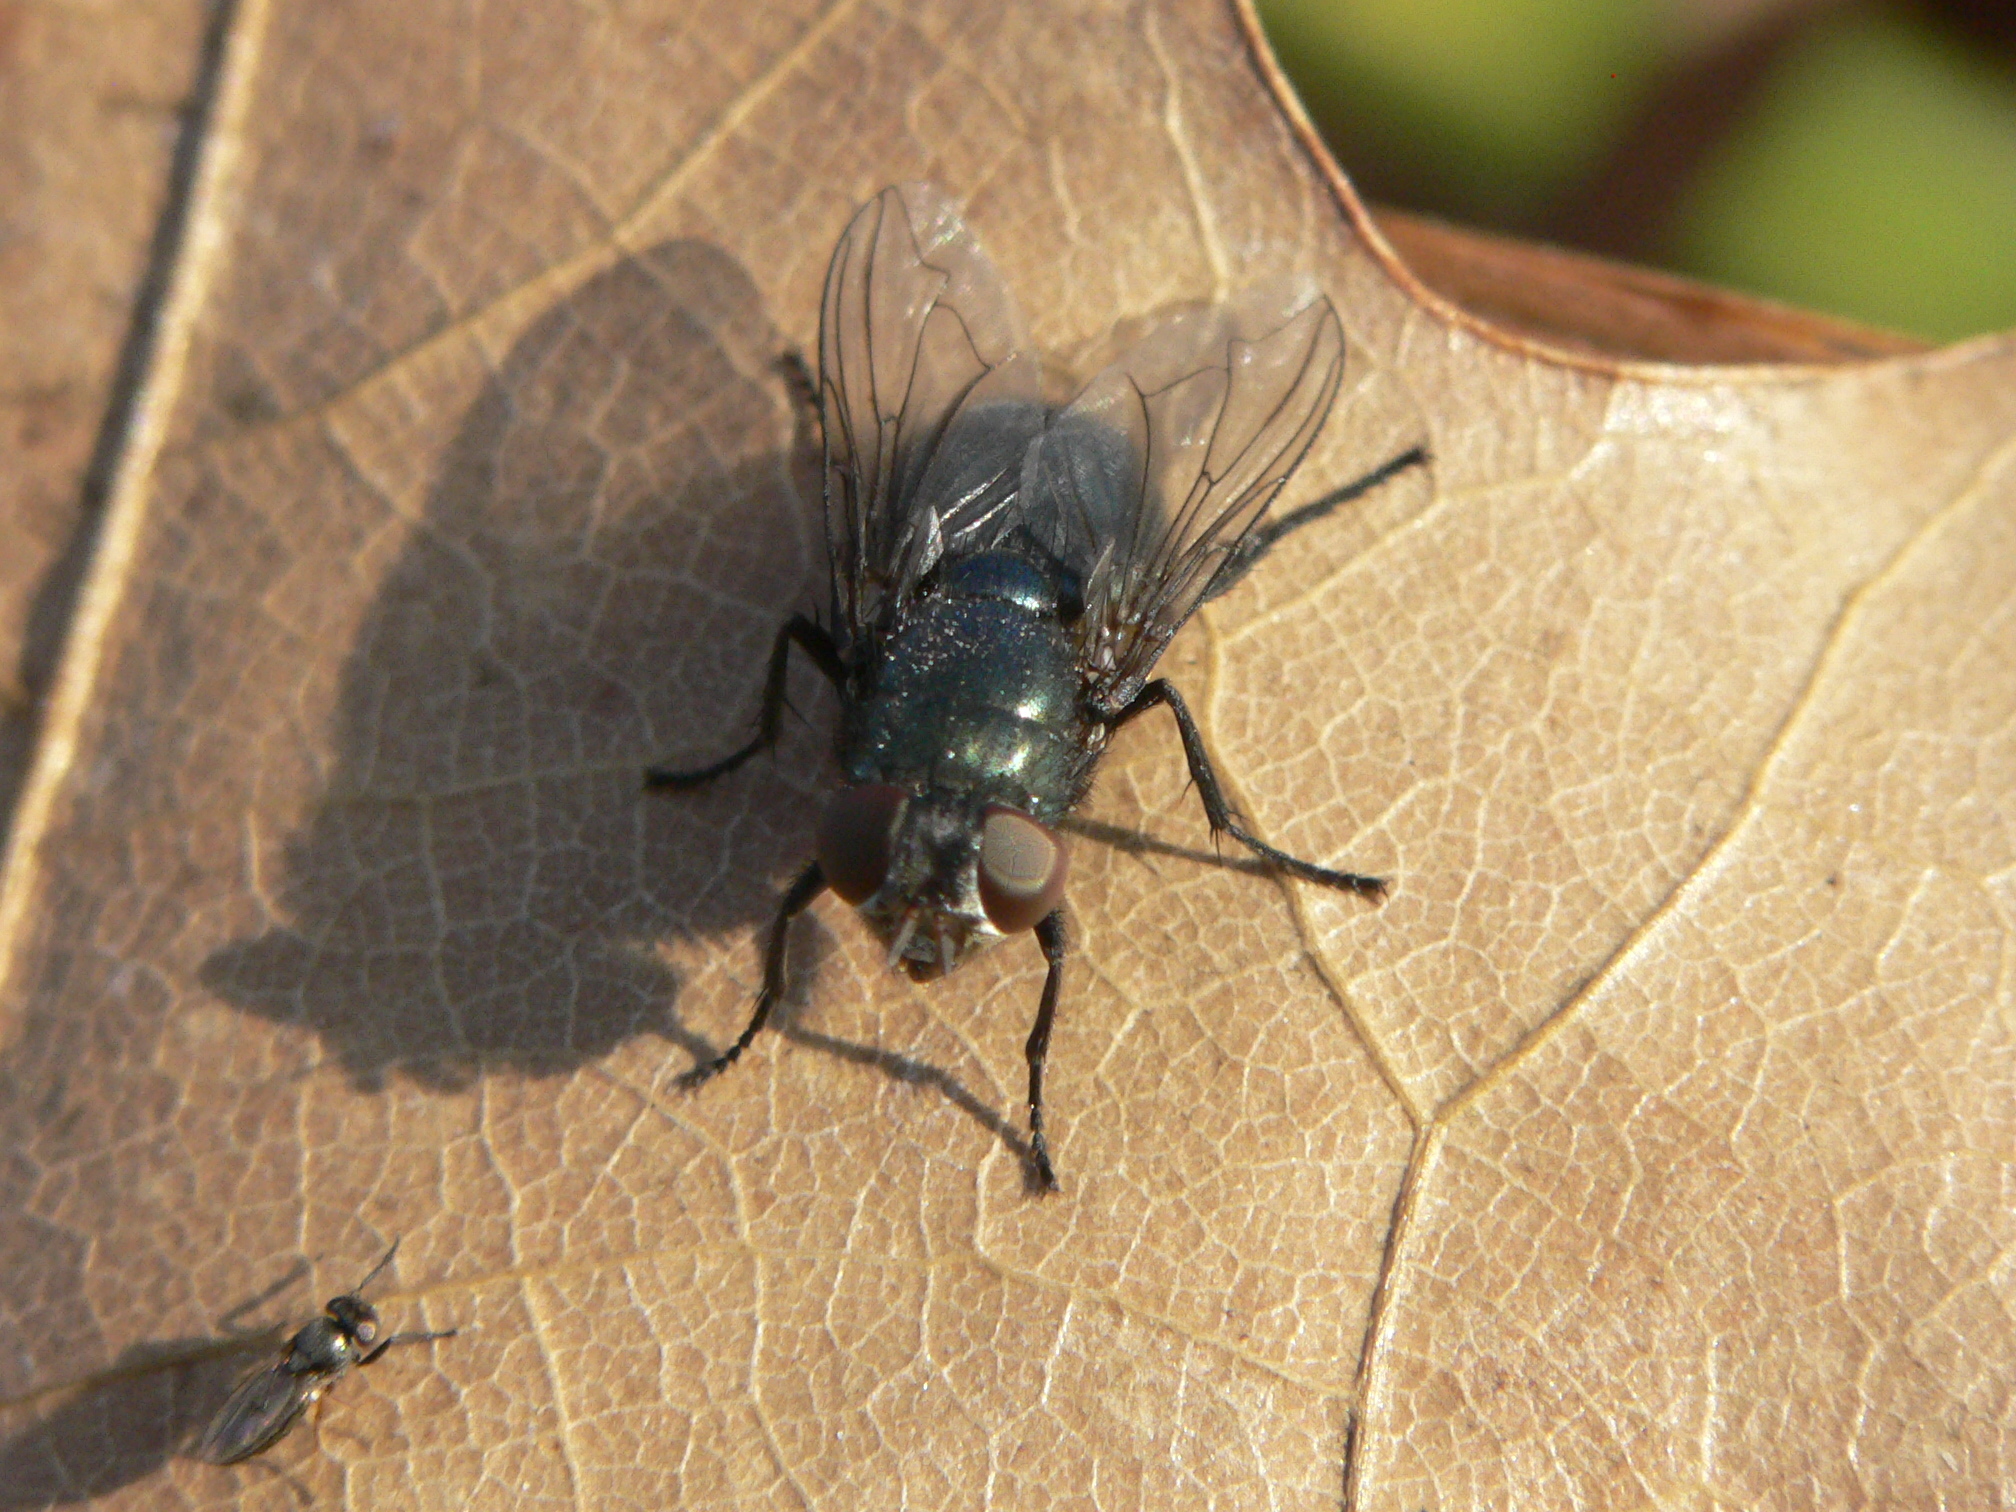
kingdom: Animalia
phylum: Arthropoda
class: Insecta
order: Diptera
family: Calliphoridae
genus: Phormia
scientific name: Phormia regina
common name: Black blow fly
